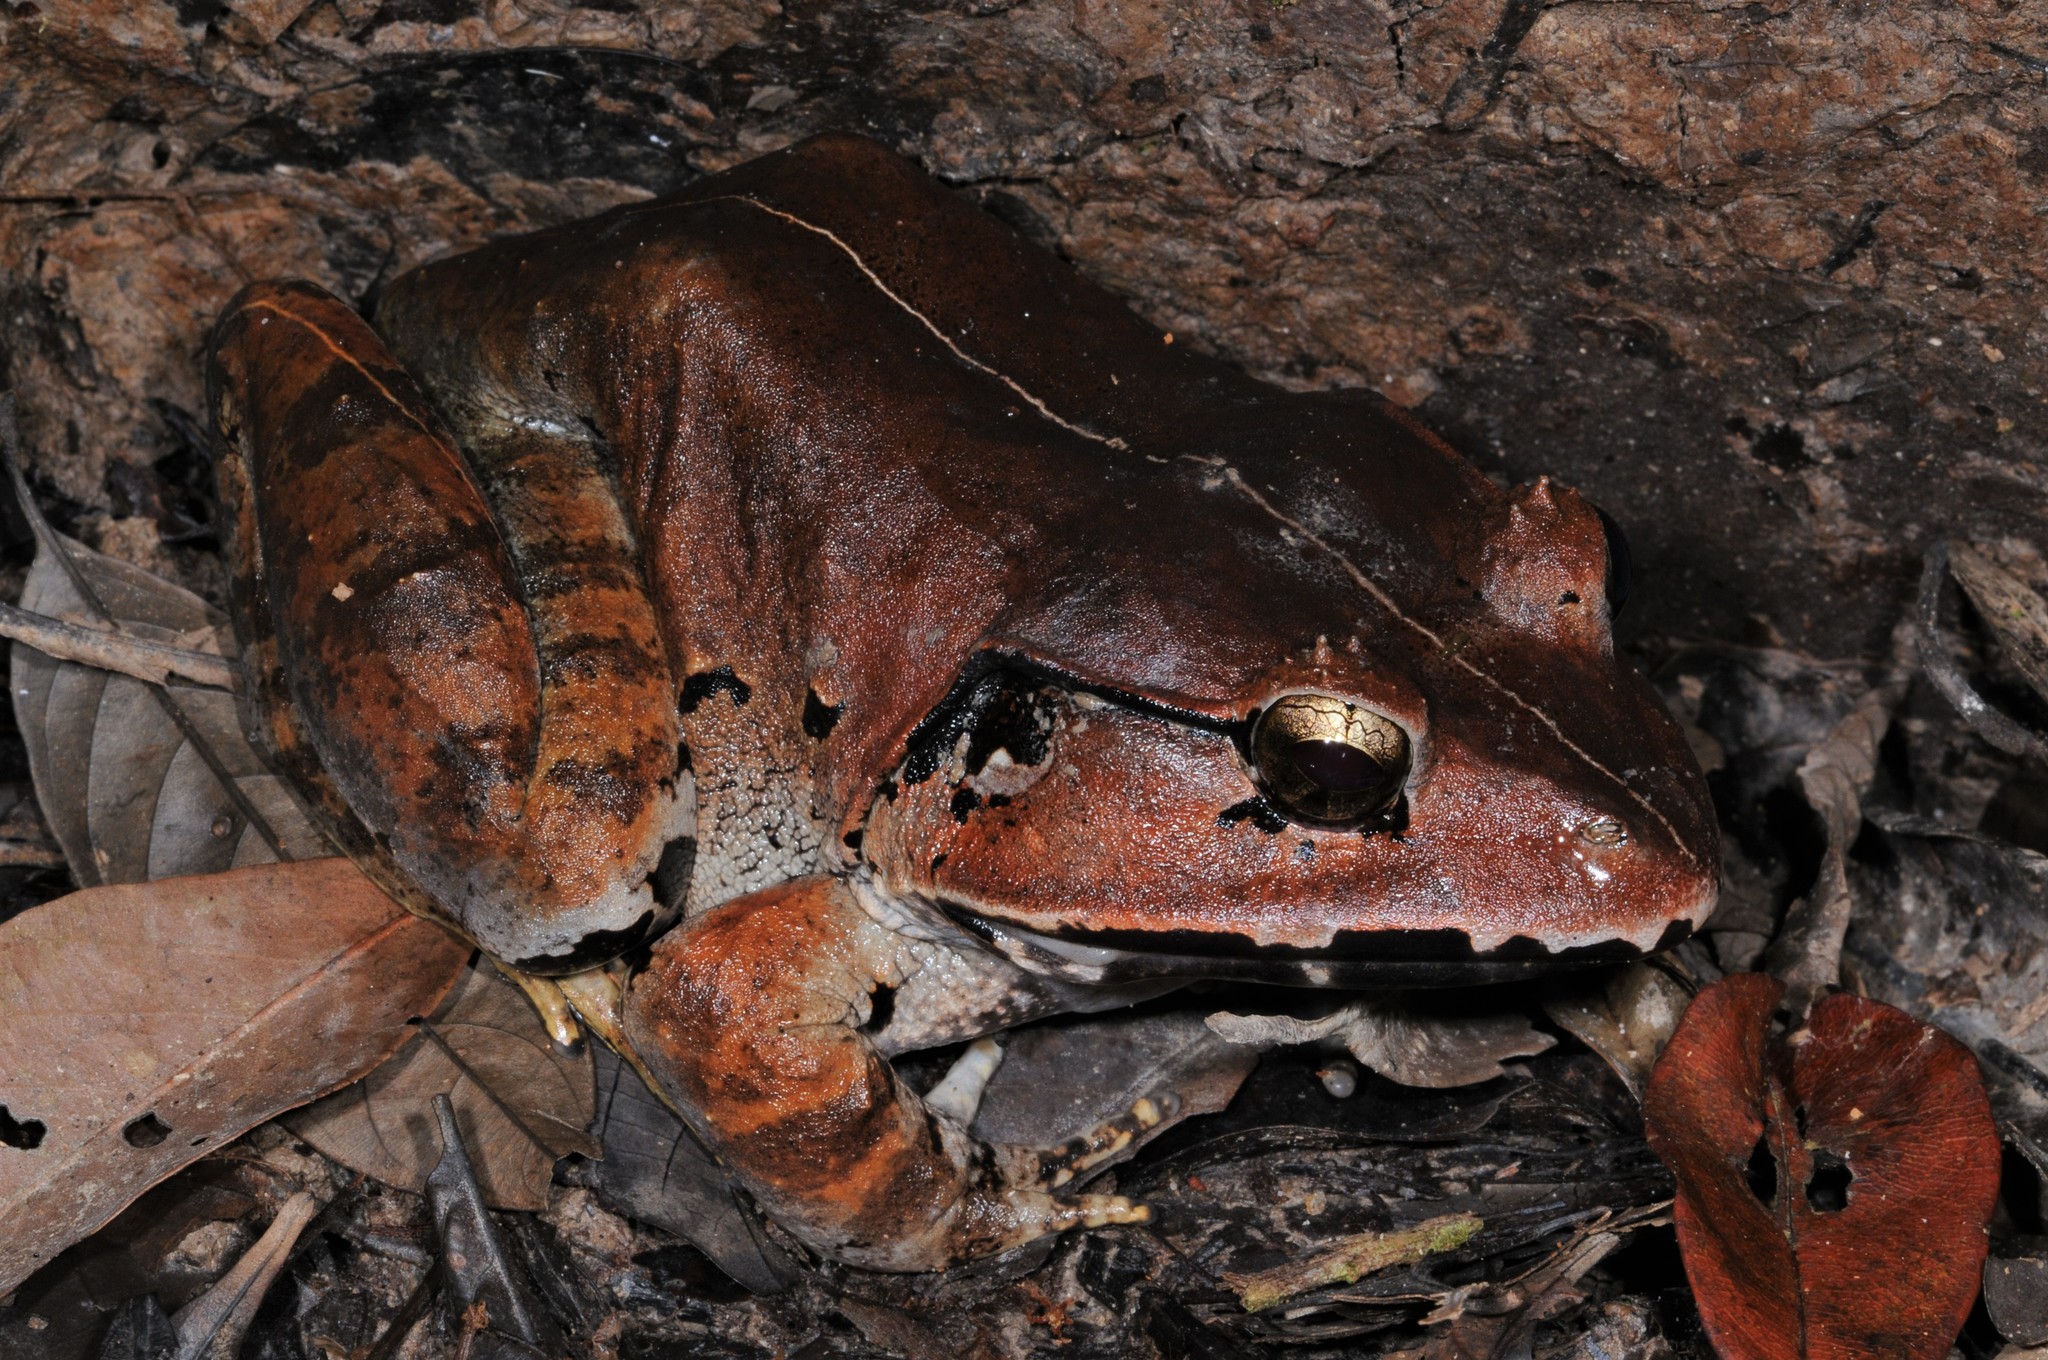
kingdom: Animalia
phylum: Chordata
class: Amphibia
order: Anura
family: Dicroglossidae
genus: Limnonectes
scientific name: Limnonectes malesianus
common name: Peat swamp frog/malaysian frog
